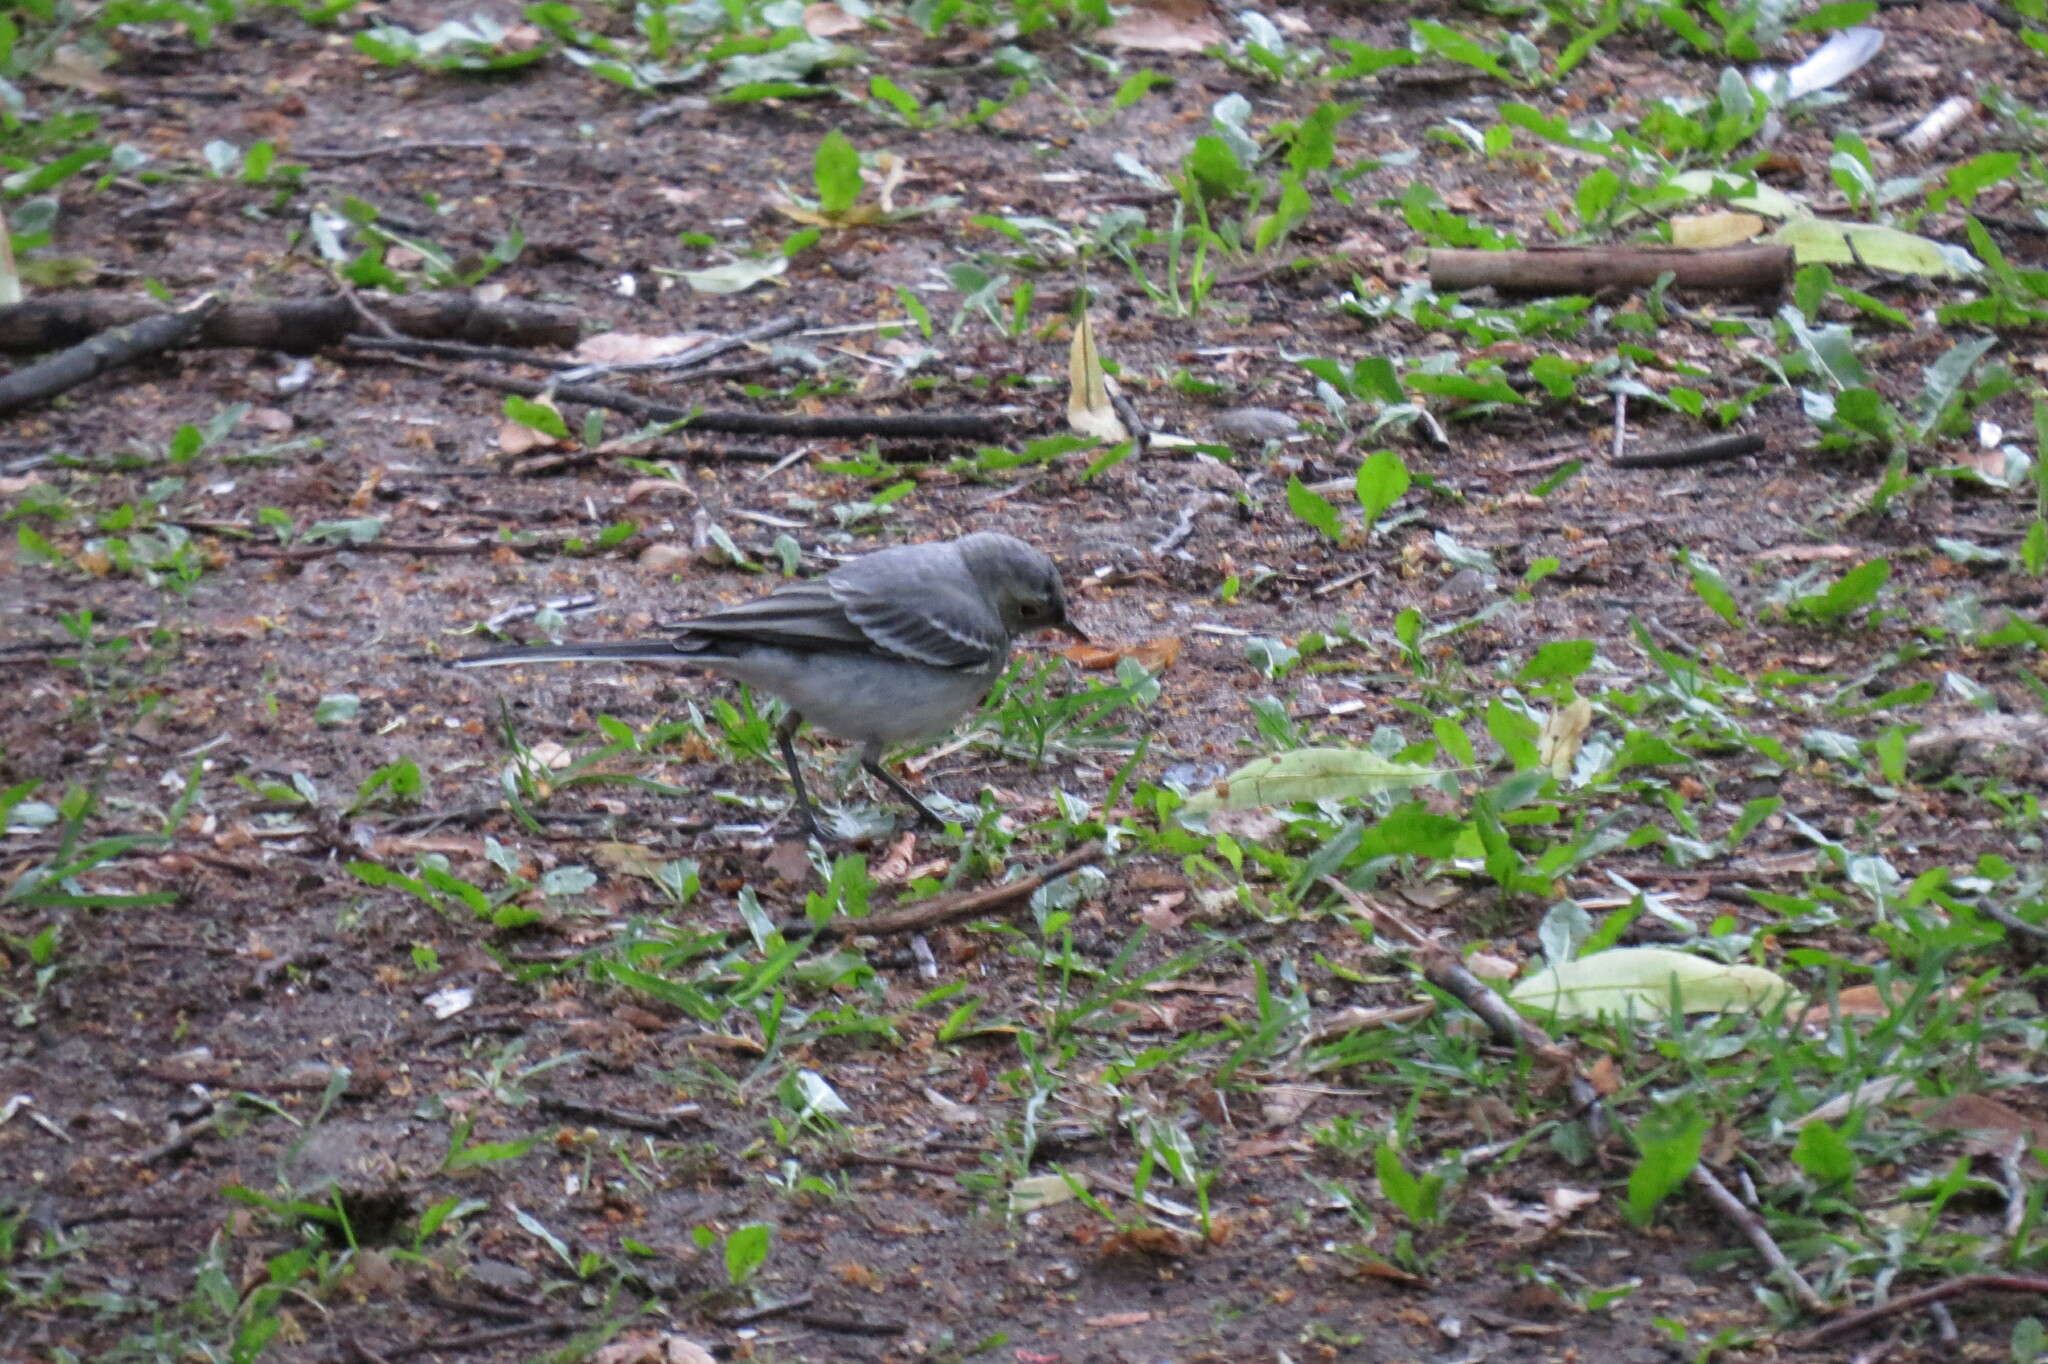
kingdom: Animalia
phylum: Chordata
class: Aves
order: Passeriformes
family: Motacillidae
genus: Motacilla
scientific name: Motacilla alba
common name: White wagtail
